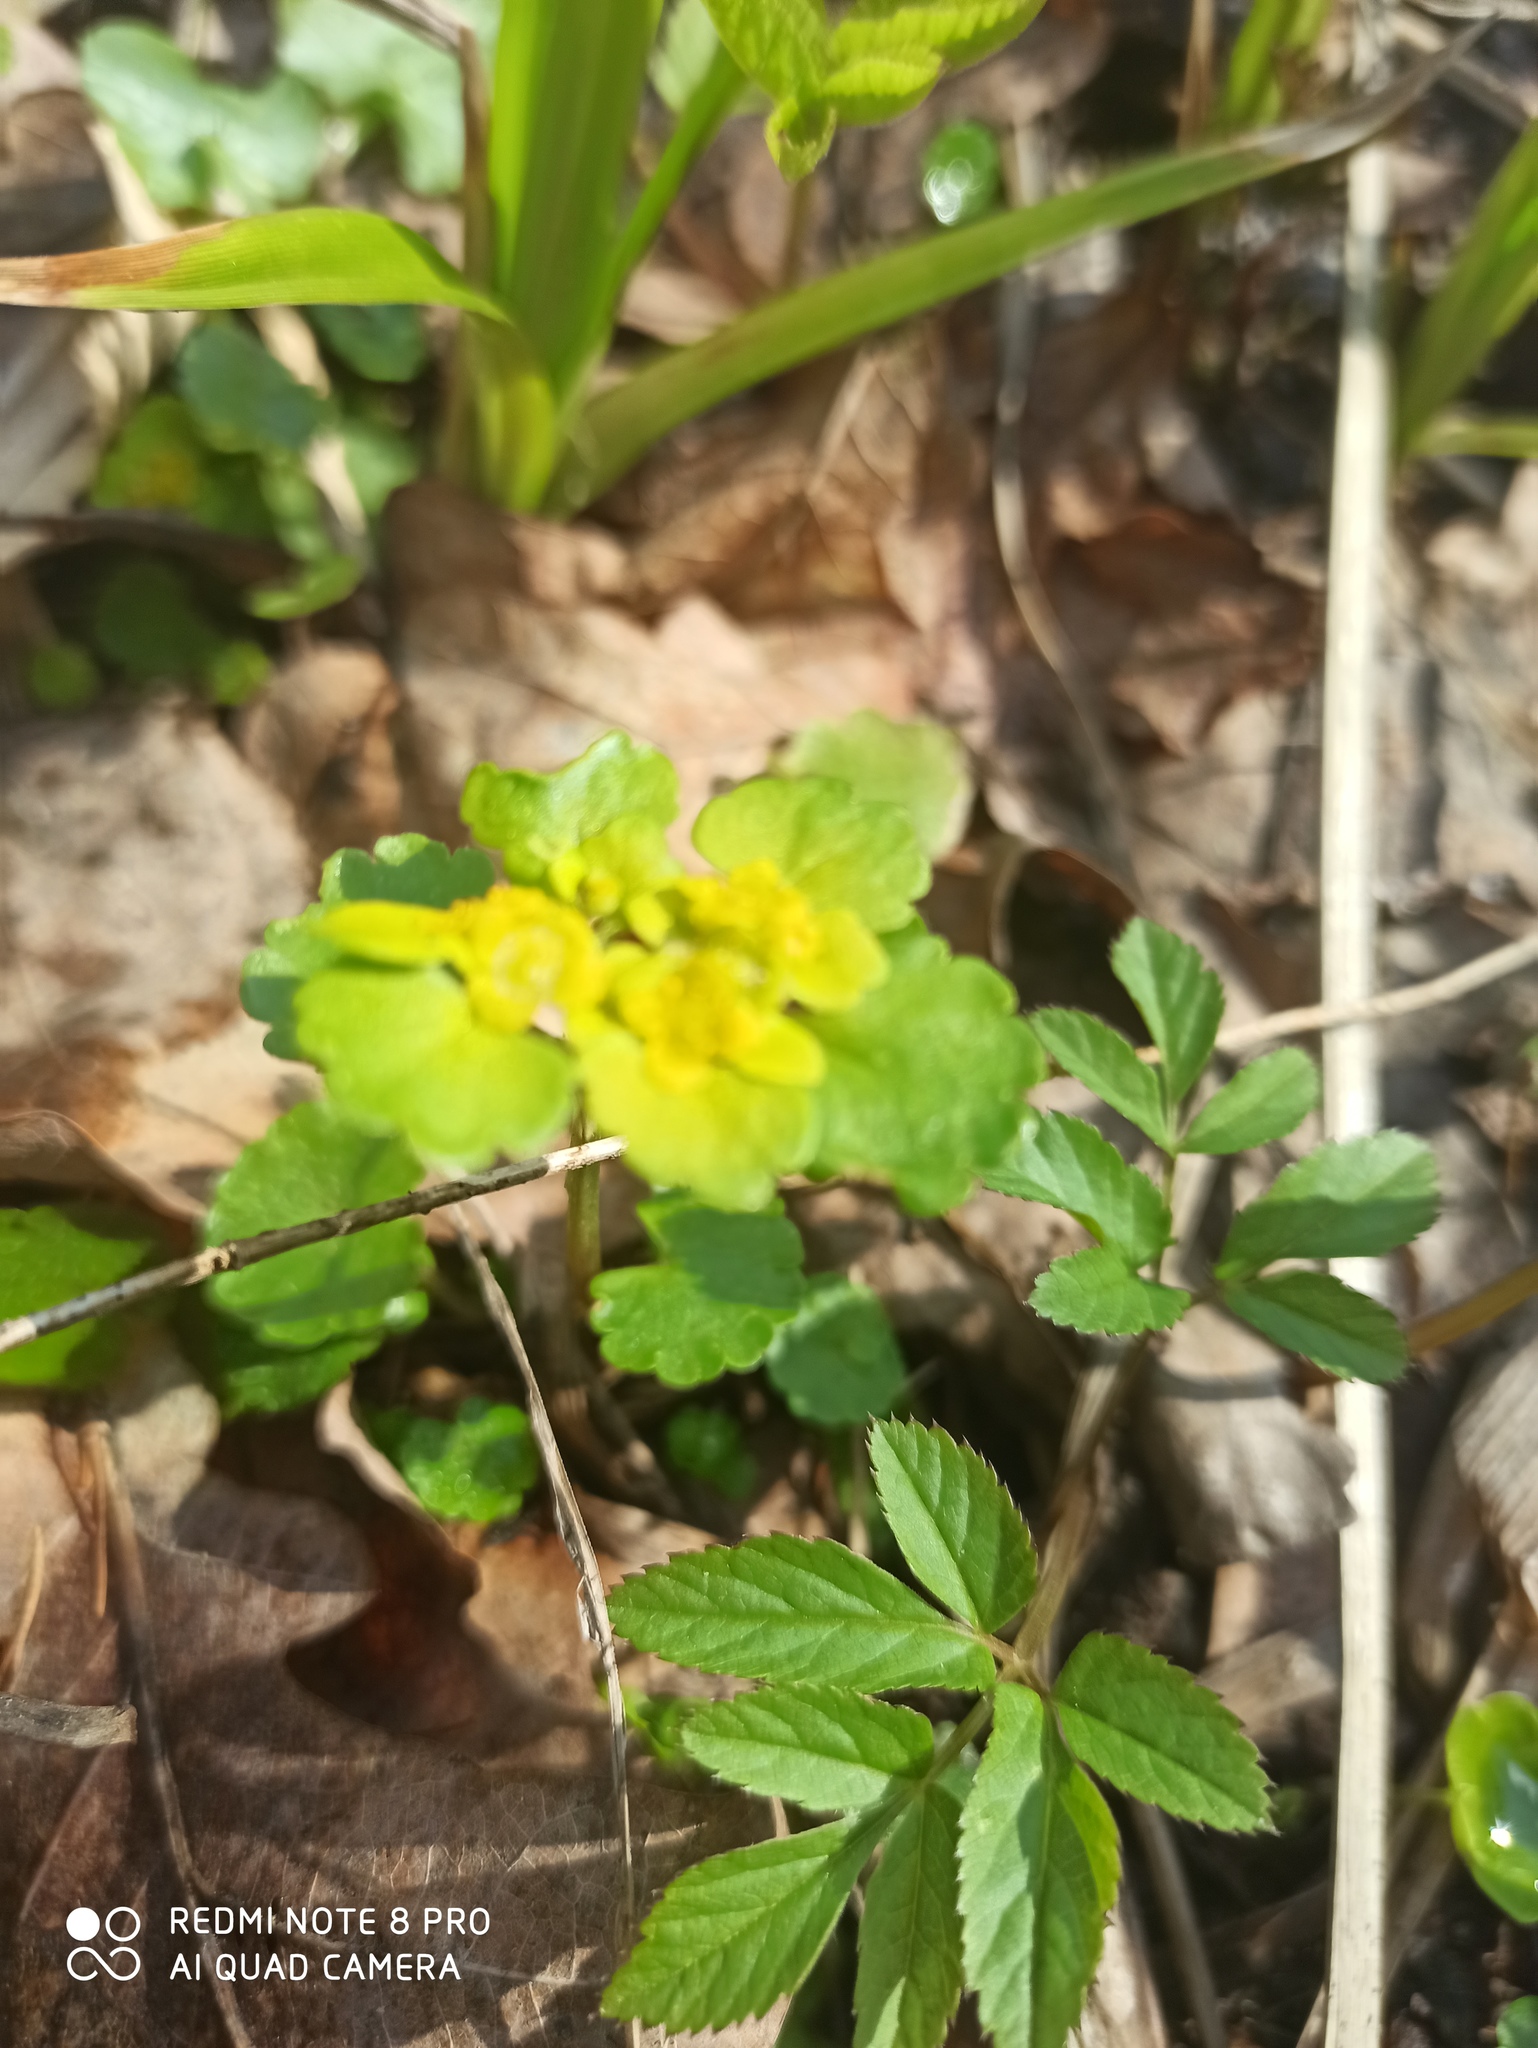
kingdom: Plantae
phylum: Tracheophyta
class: Magnoliopsida
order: Saxifragales
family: Saxifragaceae
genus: Chrysosplenium
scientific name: Chrysosplenium alternifolium
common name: Alternate-leaved golden-saxifrage
